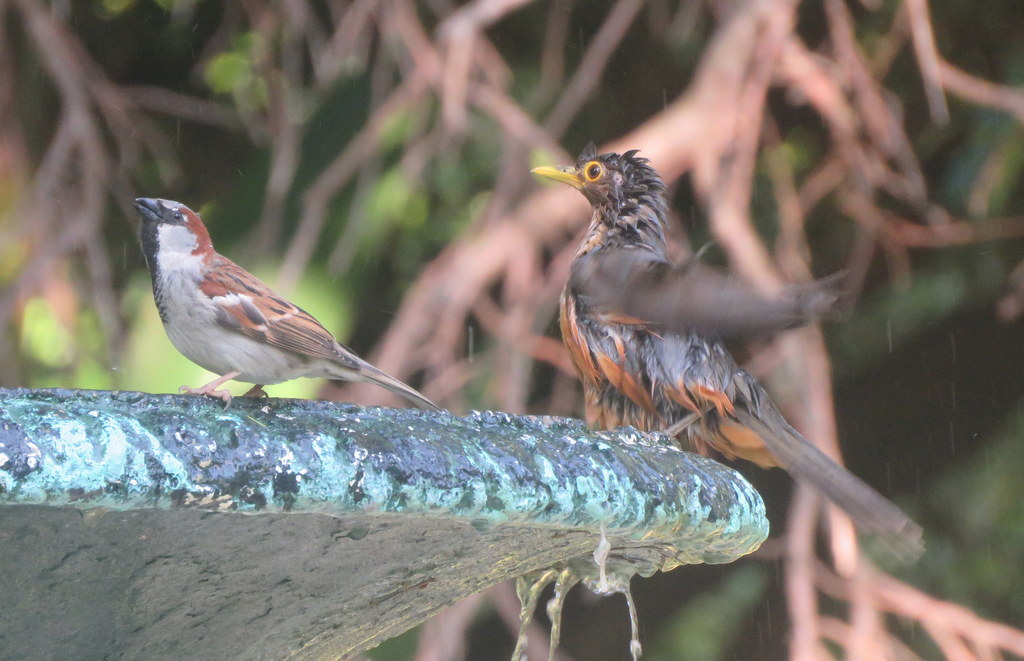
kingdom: Animalia
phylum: Chordata
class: Aves
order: Passeriformes
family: Passeridae
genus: Passer
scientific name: Passer domesticus
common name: House sparrow
